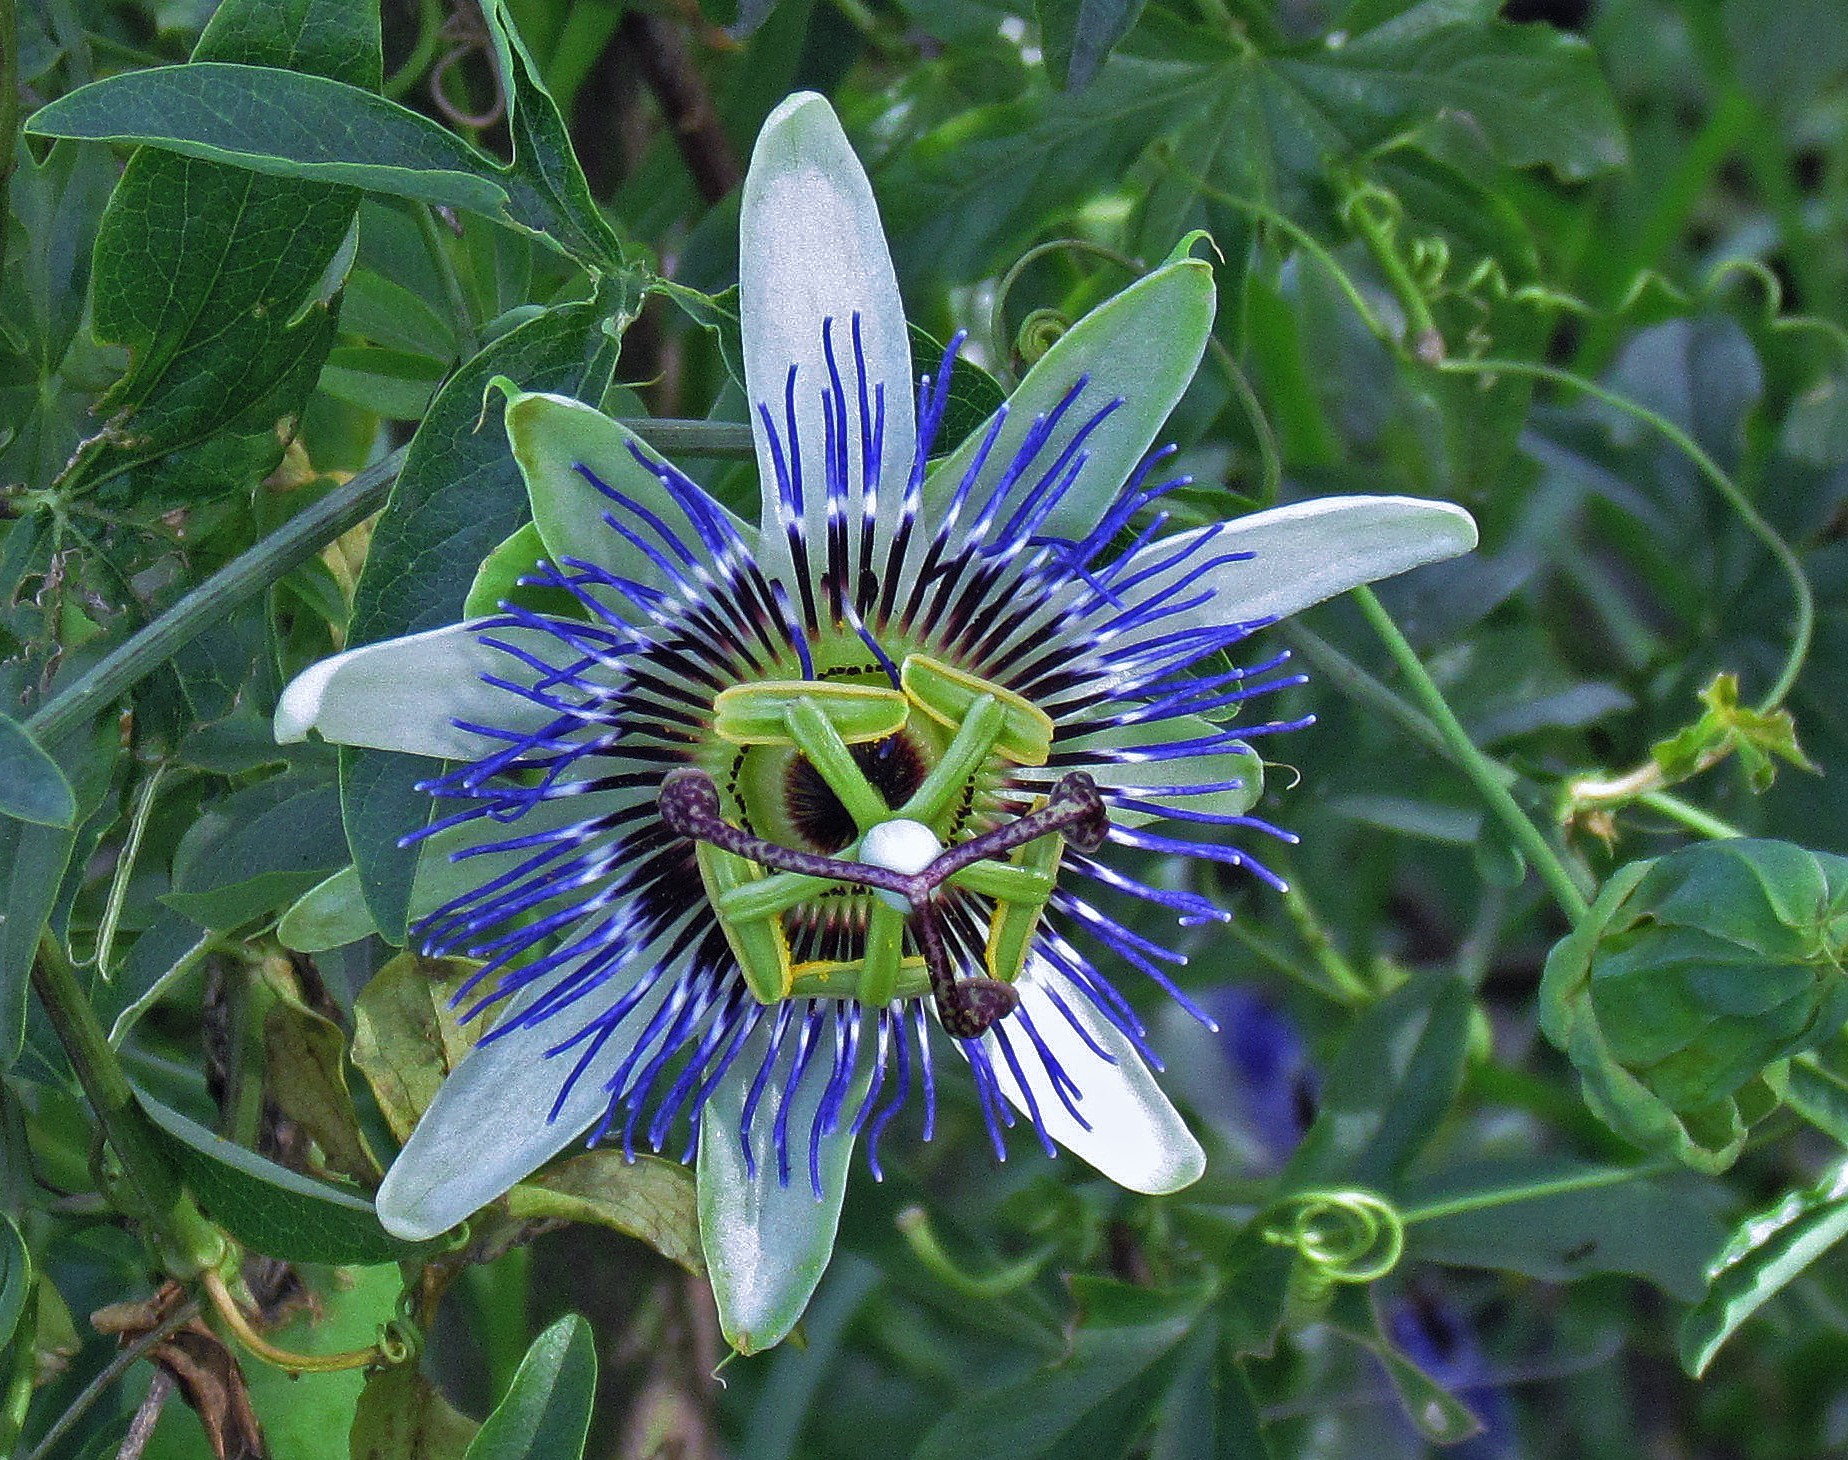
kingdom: Plantae
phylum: Tracheophyta
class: Magnoliopsida
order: Malpighiales
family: Passifloraceae
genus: Passiflora
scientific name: Passiflora caerulea
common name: Blue passionflower
